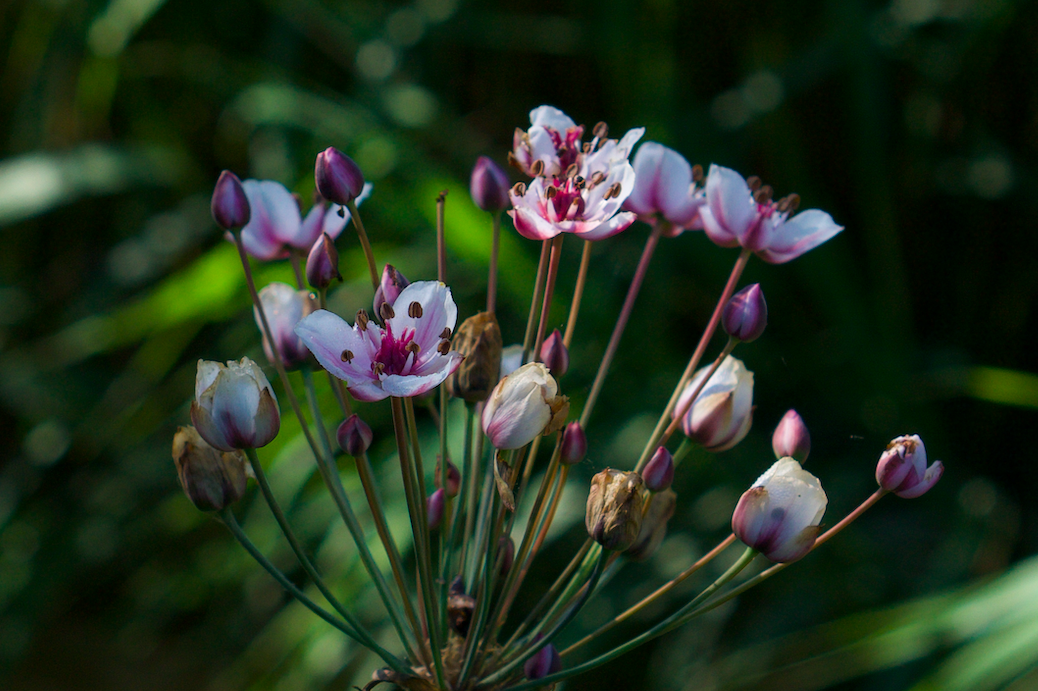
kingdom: Plantae
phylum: Tracheophyta
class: Liliopsida
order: Alismatales
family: Butomaceae
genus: Butomus
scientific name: Butomus umbellatus
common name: Flowering-rush
